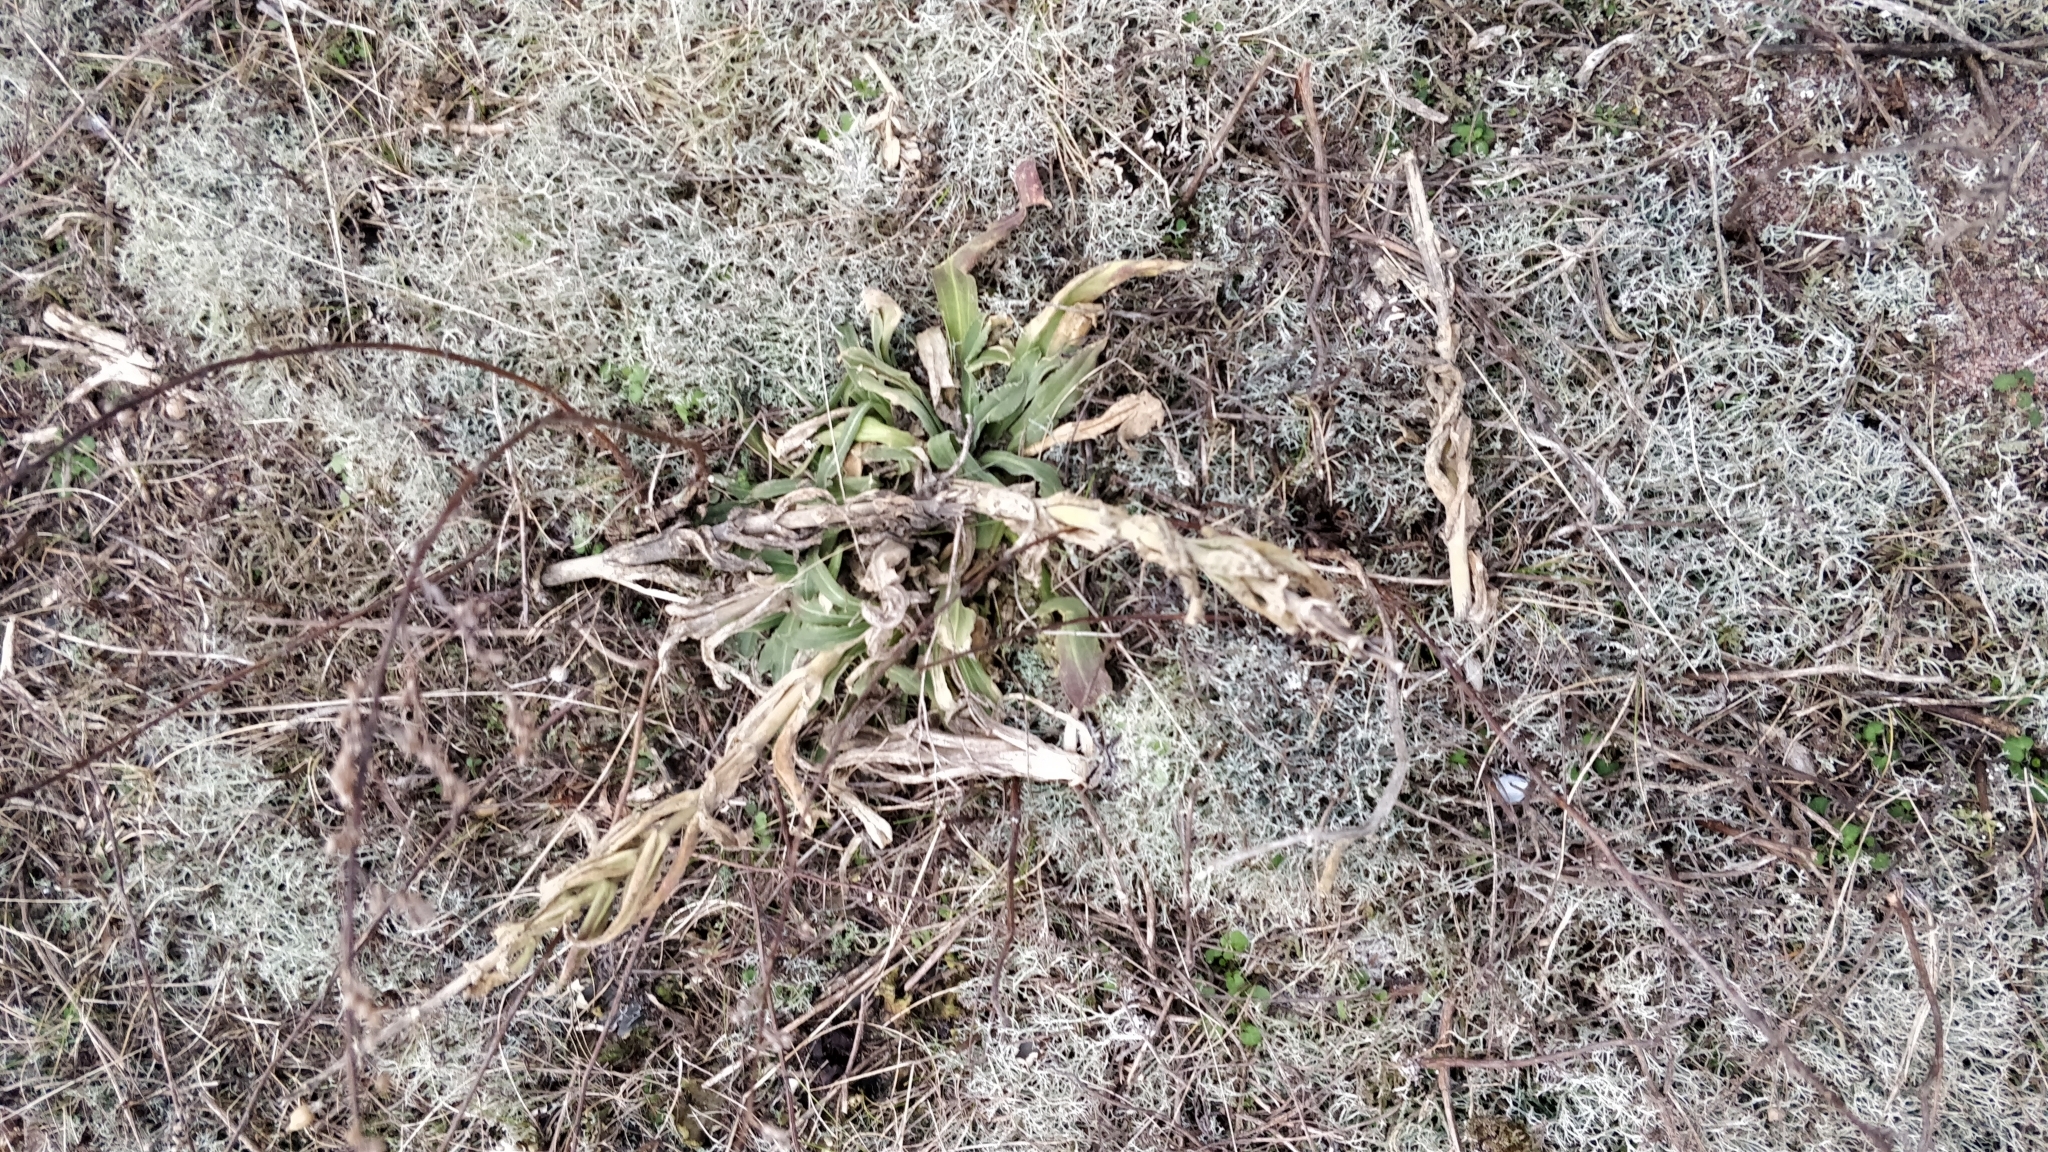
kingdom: Plantae
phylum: Tracheophyta
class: Magnoliopsida
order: Caryophyllales
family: Caryophyllaceae
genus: Silene
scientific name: Silene viscosa
